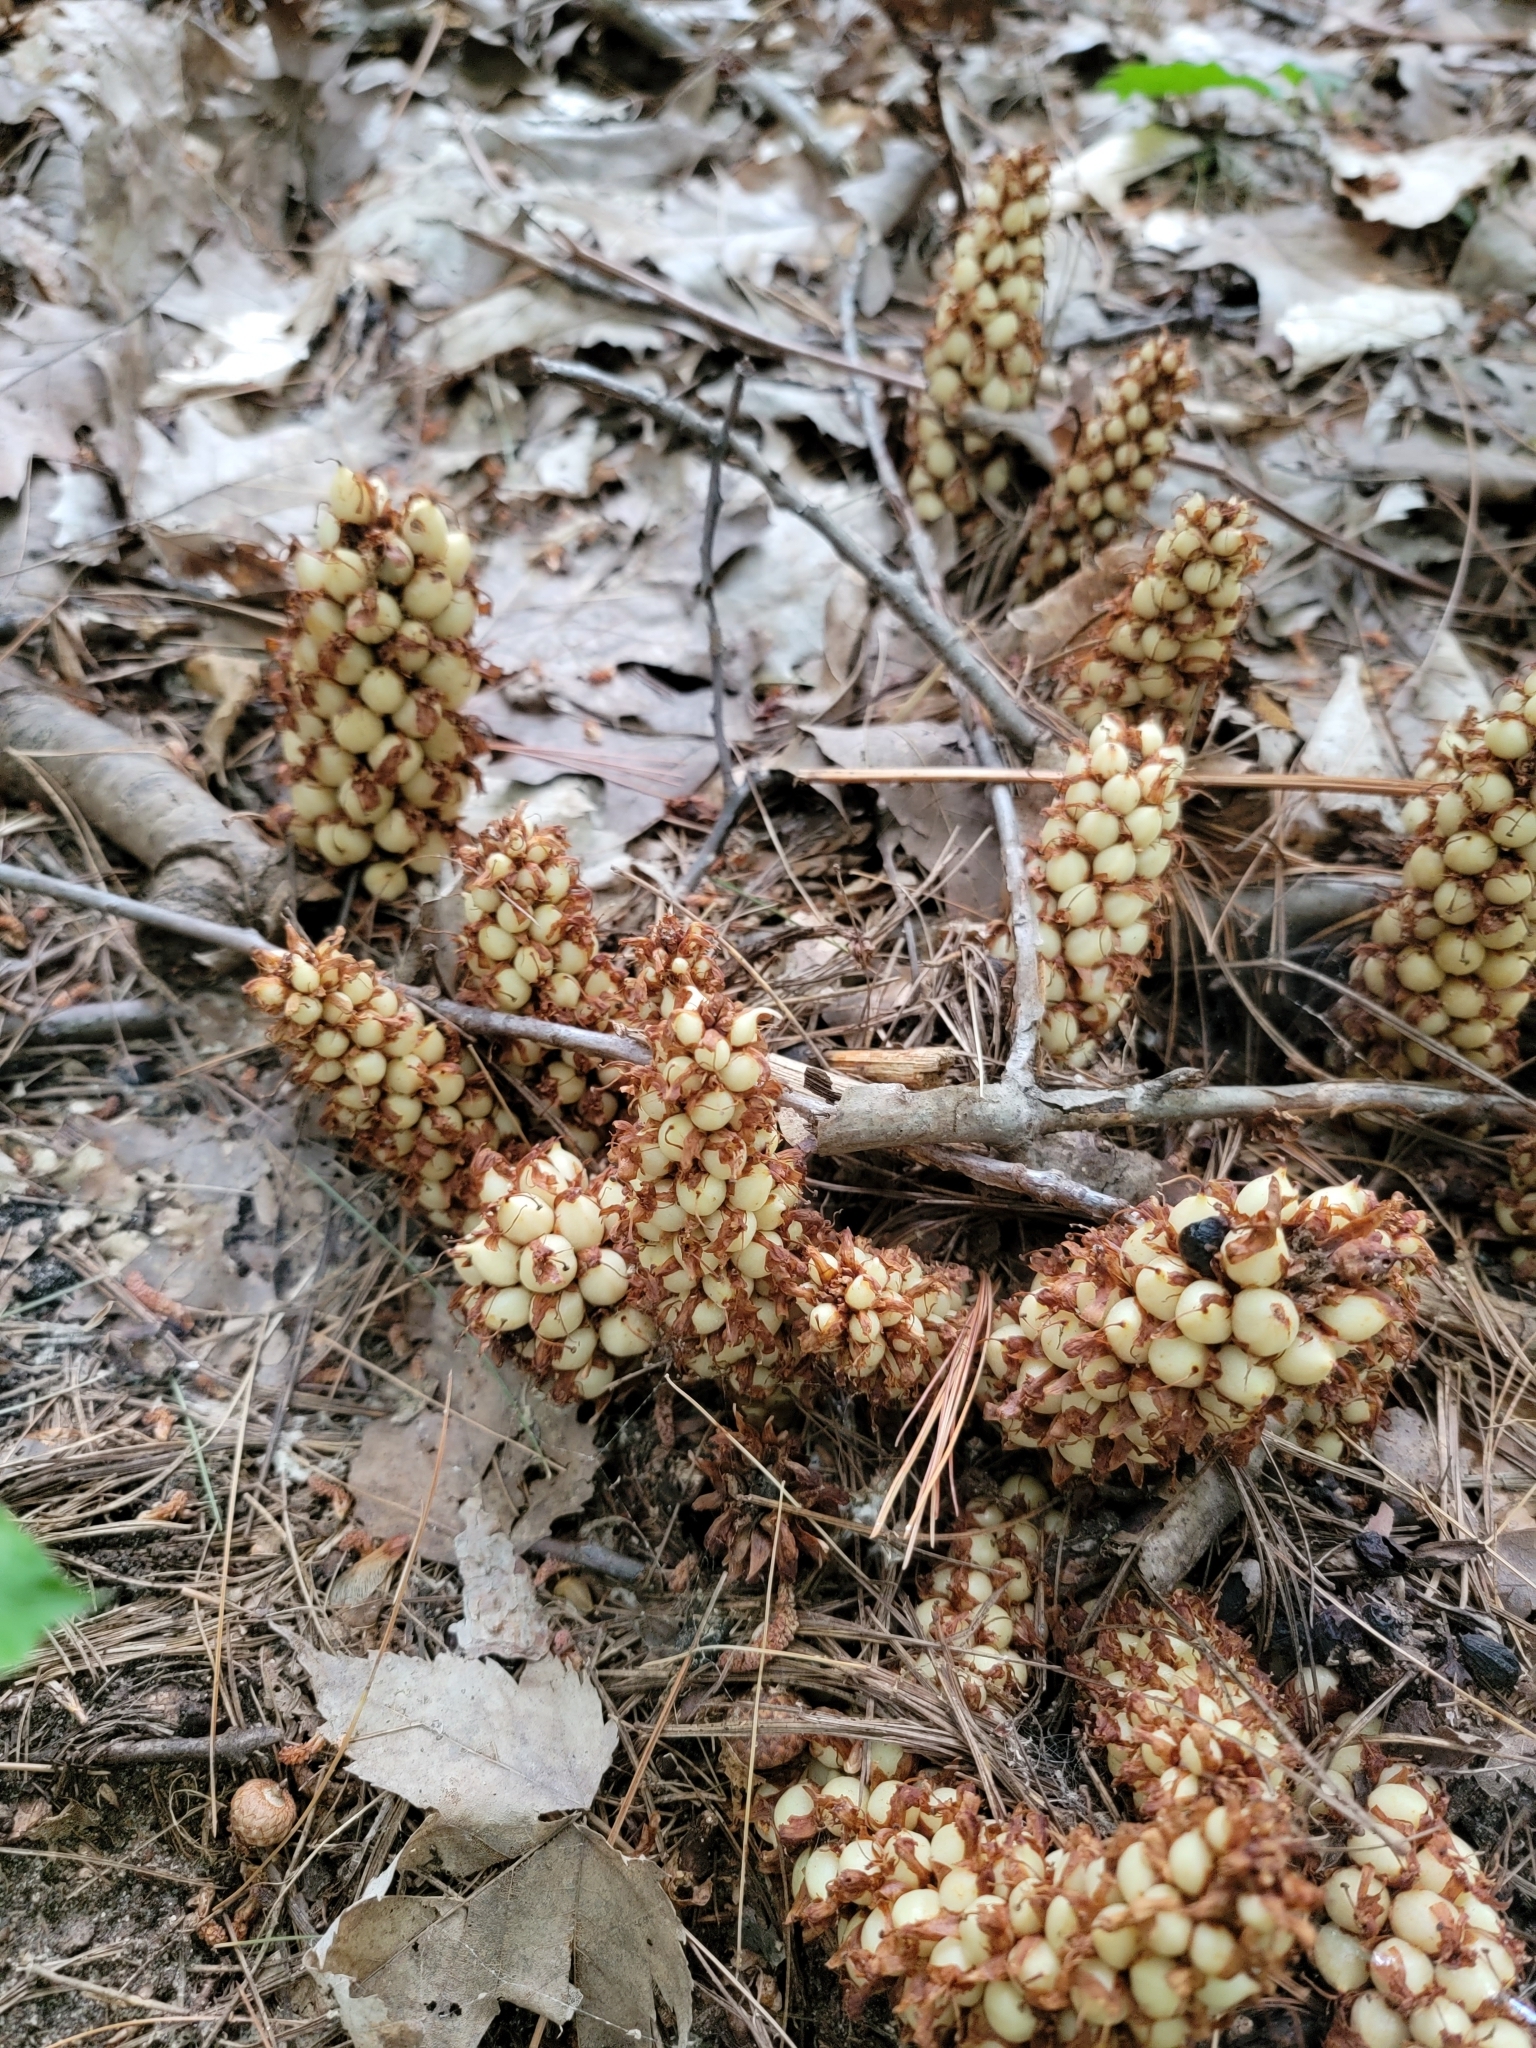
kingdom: Plantae
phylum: Tracheophyta
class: Magnoliopsida
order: Lamiales
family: Orobanchaceae
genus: Conopholis
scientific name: Conopholis americana
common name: American cancer-root
